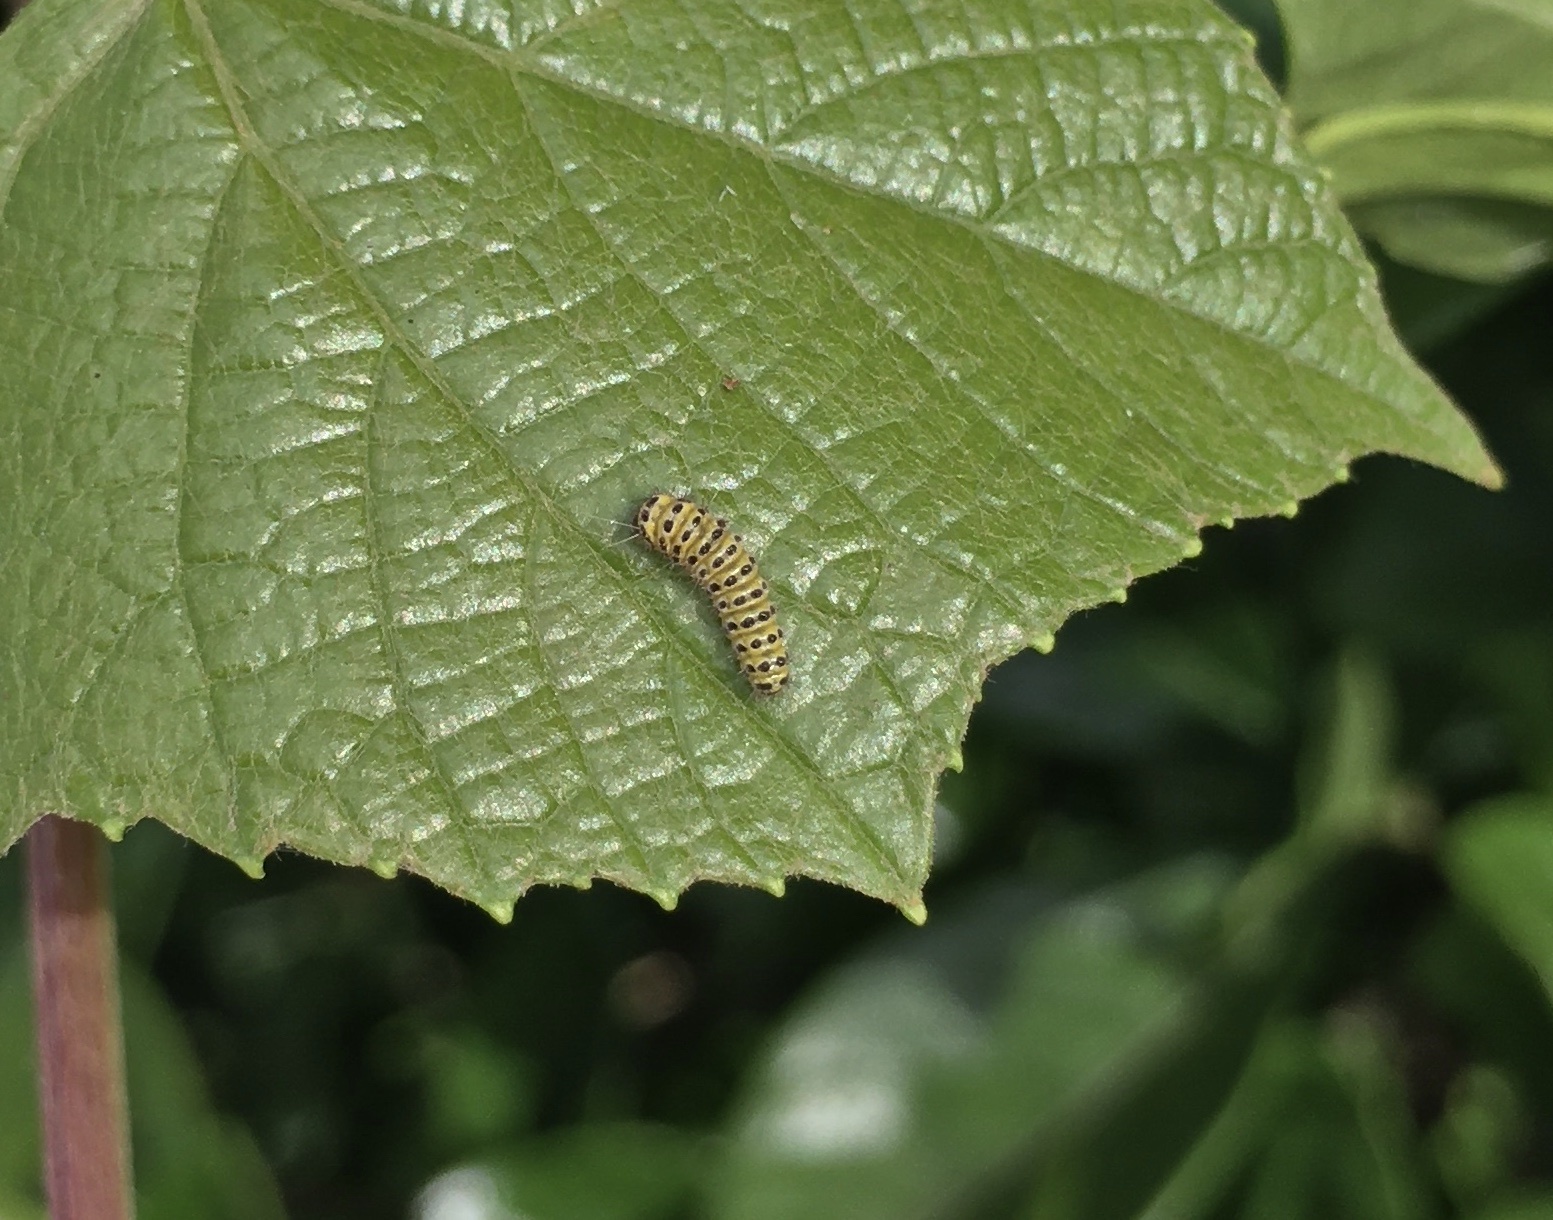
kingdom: Animalia
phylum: Arthropoda
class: Insecta
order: Lepidoptera
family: Zygaenidae
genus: Harrisina
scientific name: Harrisina americana
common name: Grapeleaf skeletonizer moth
